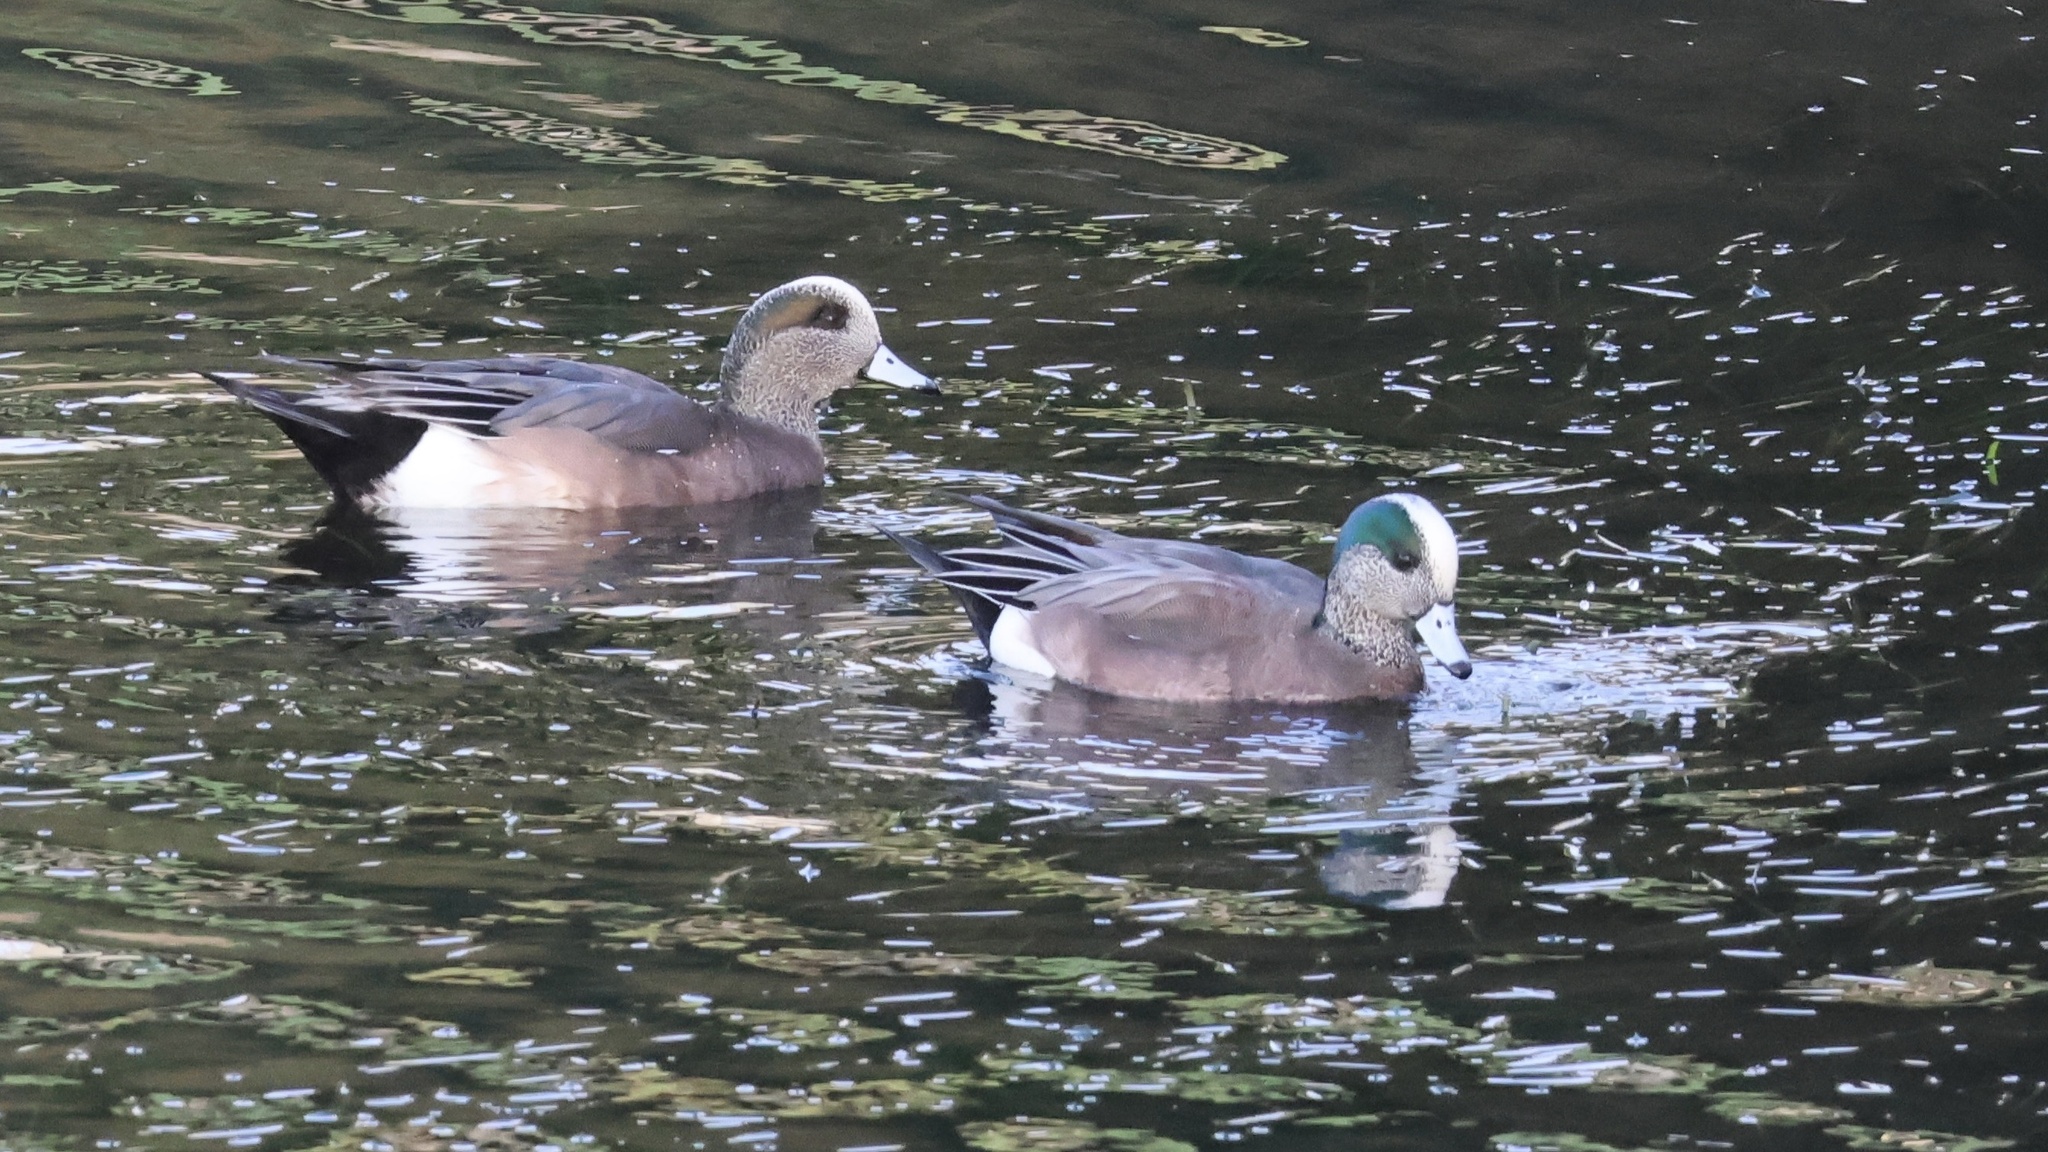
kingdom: Animalia
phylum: Chordata
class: Aves
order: Anseriformes
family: Anatidae
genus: Mareca
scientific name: Mareca americana
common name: American wigeon
